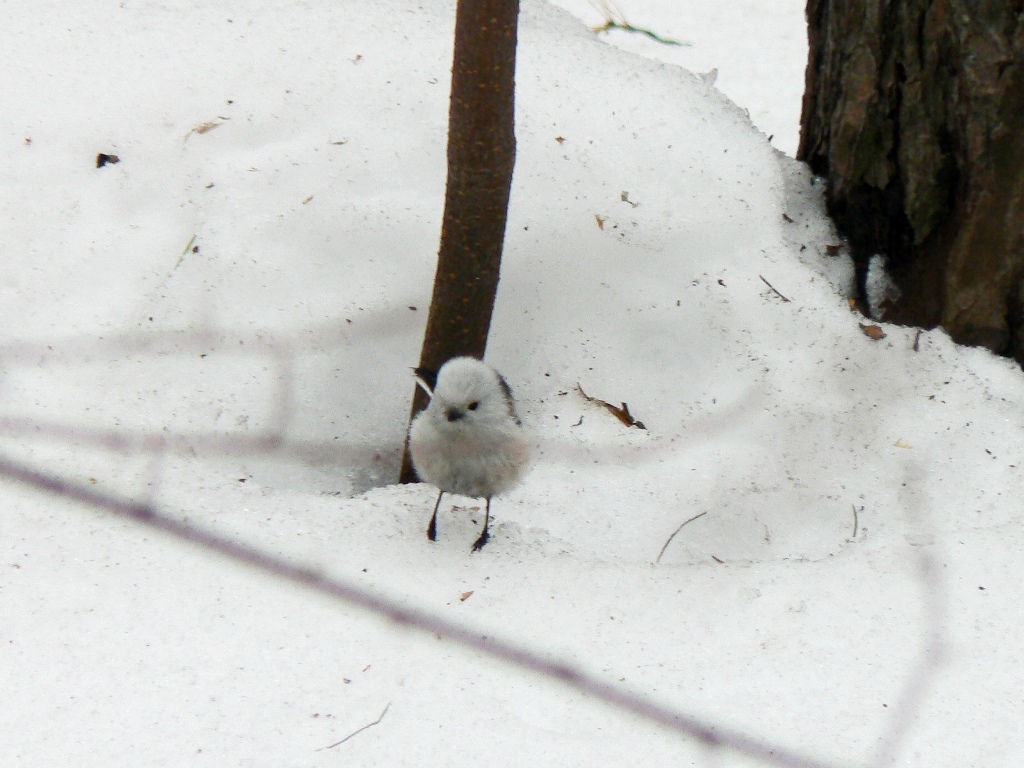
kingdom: Animalia
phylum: Chordata
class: Aves
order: Passeriformes
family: Aegithalidae
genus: Aegithalos
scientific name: Aegithalos caudatus
